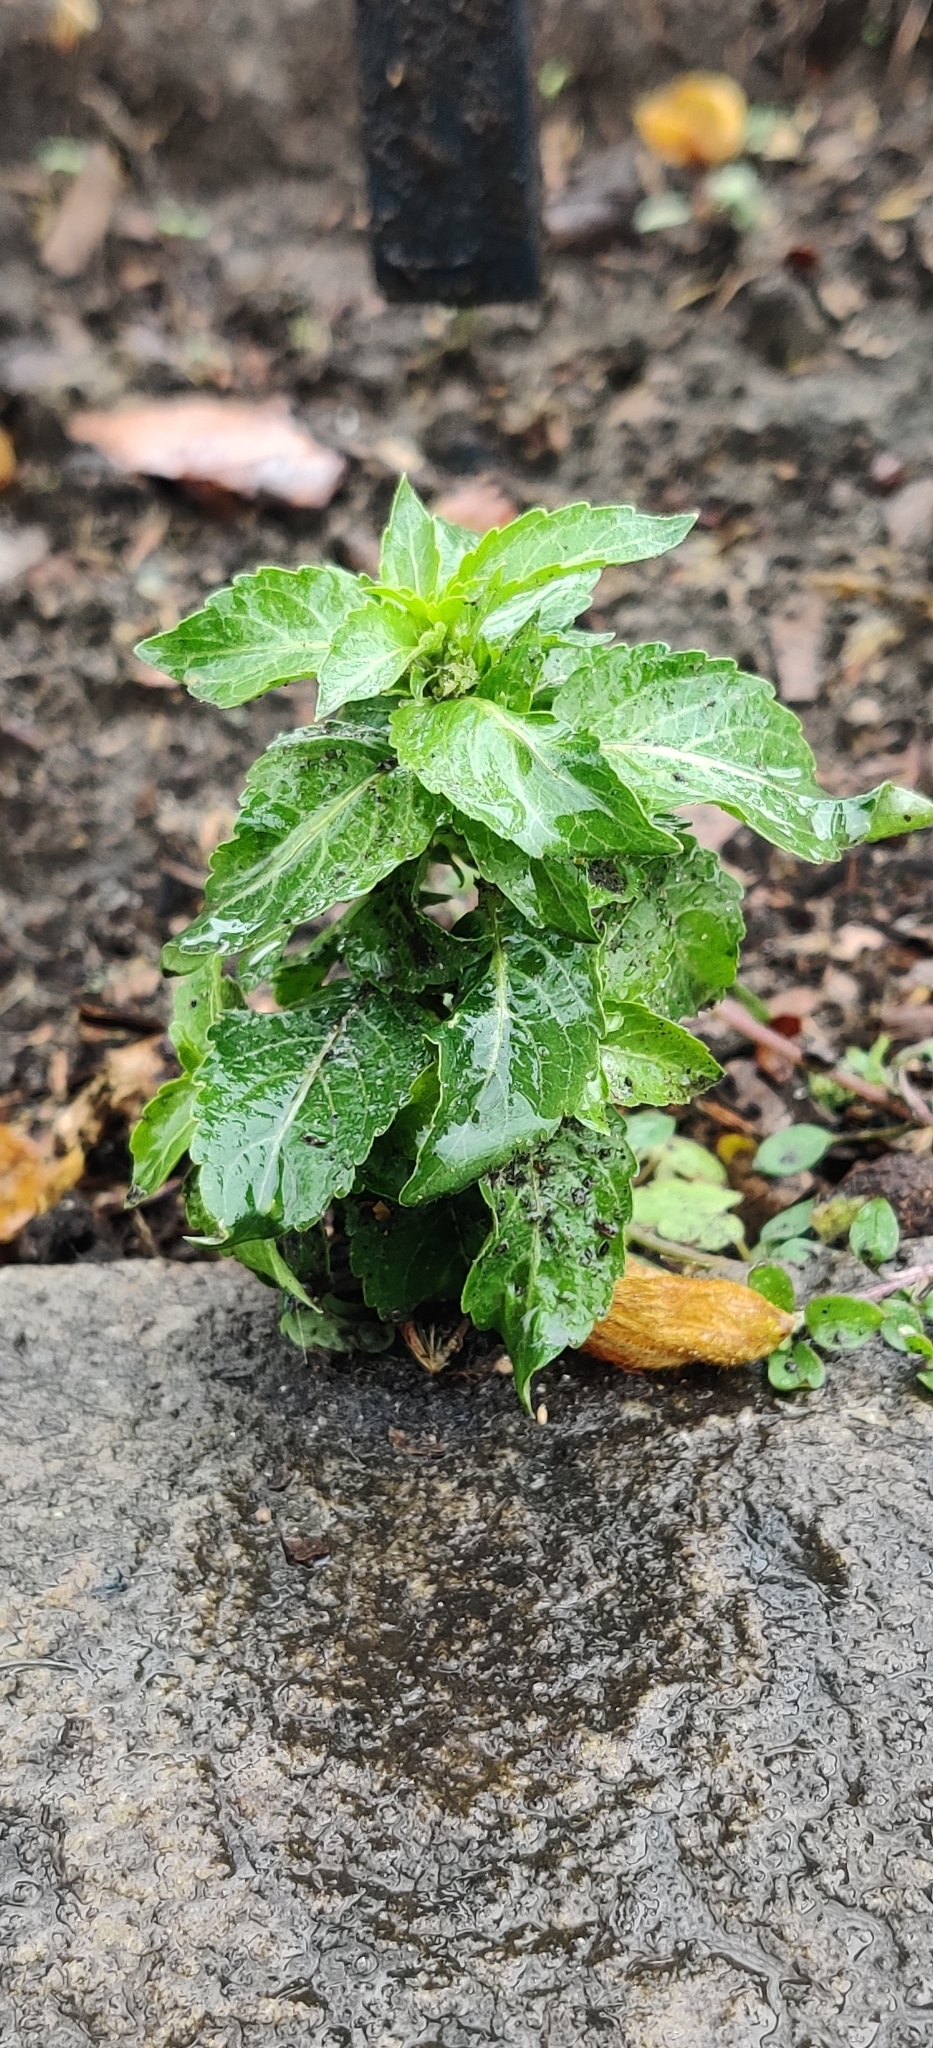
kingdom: Plantae
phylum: Tracheophyta
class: Magnoliopsida
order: Malpighiales
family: Euphorbiaceae
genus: Mercurialis
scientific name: Mercurialis annua
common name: Annual mercury
